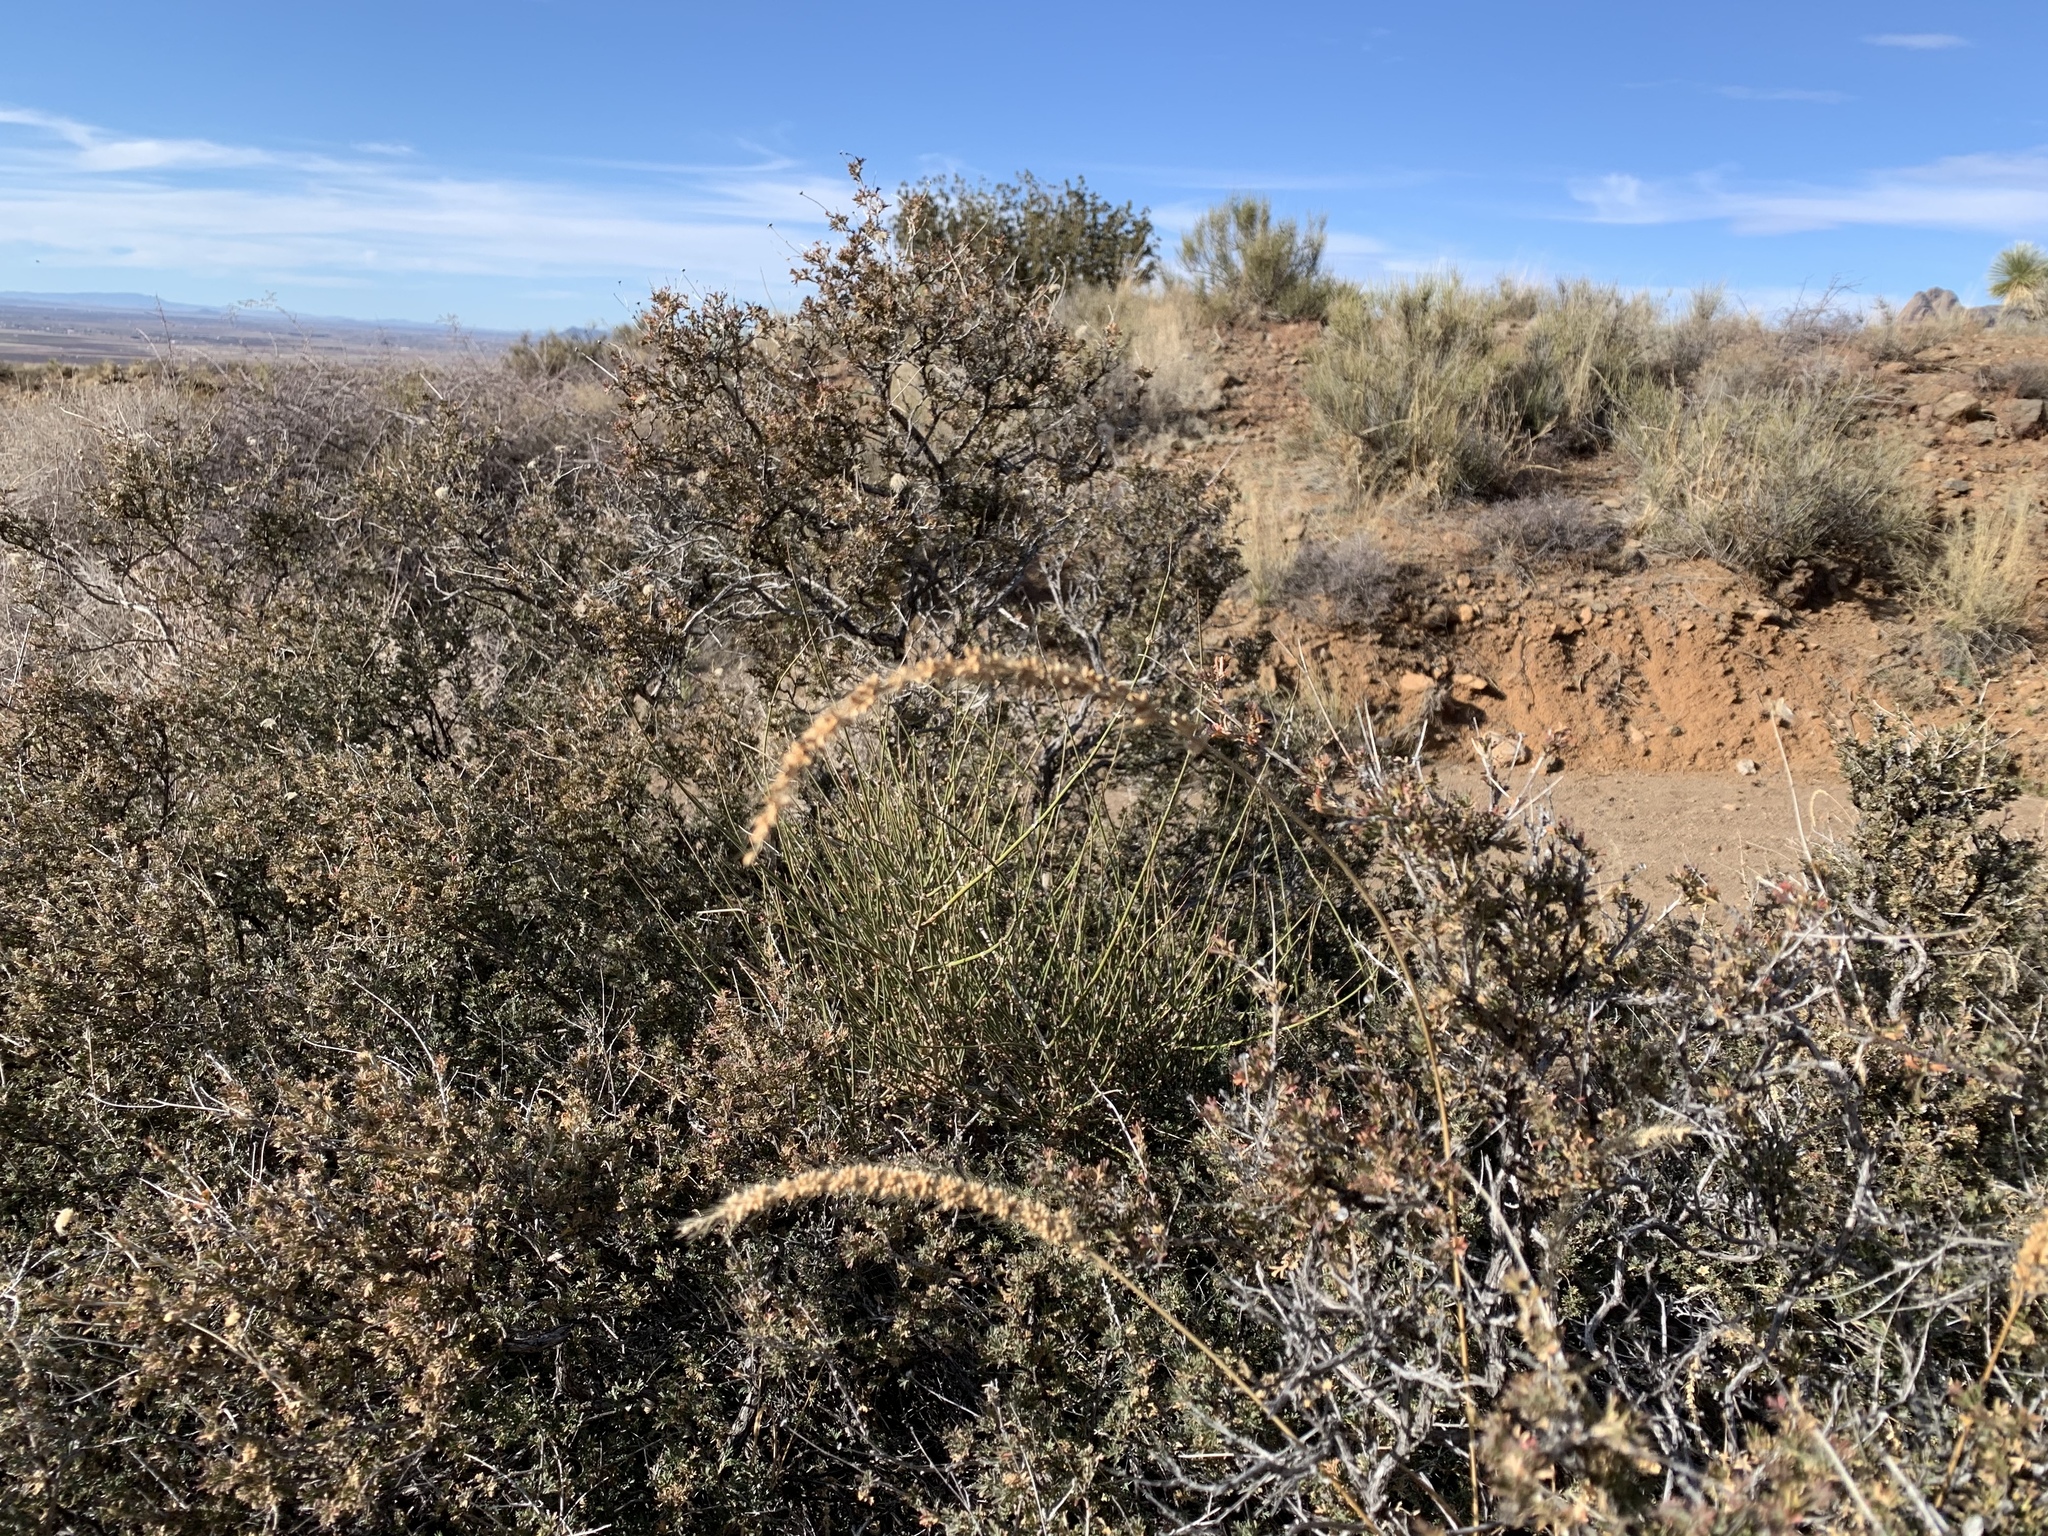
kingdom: Plantae
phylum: Tracheophyta
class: Liliopsida
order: Poales
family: Poaceae
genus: Setaria
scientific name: Setaria leucopila
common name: Plains bristle grass
